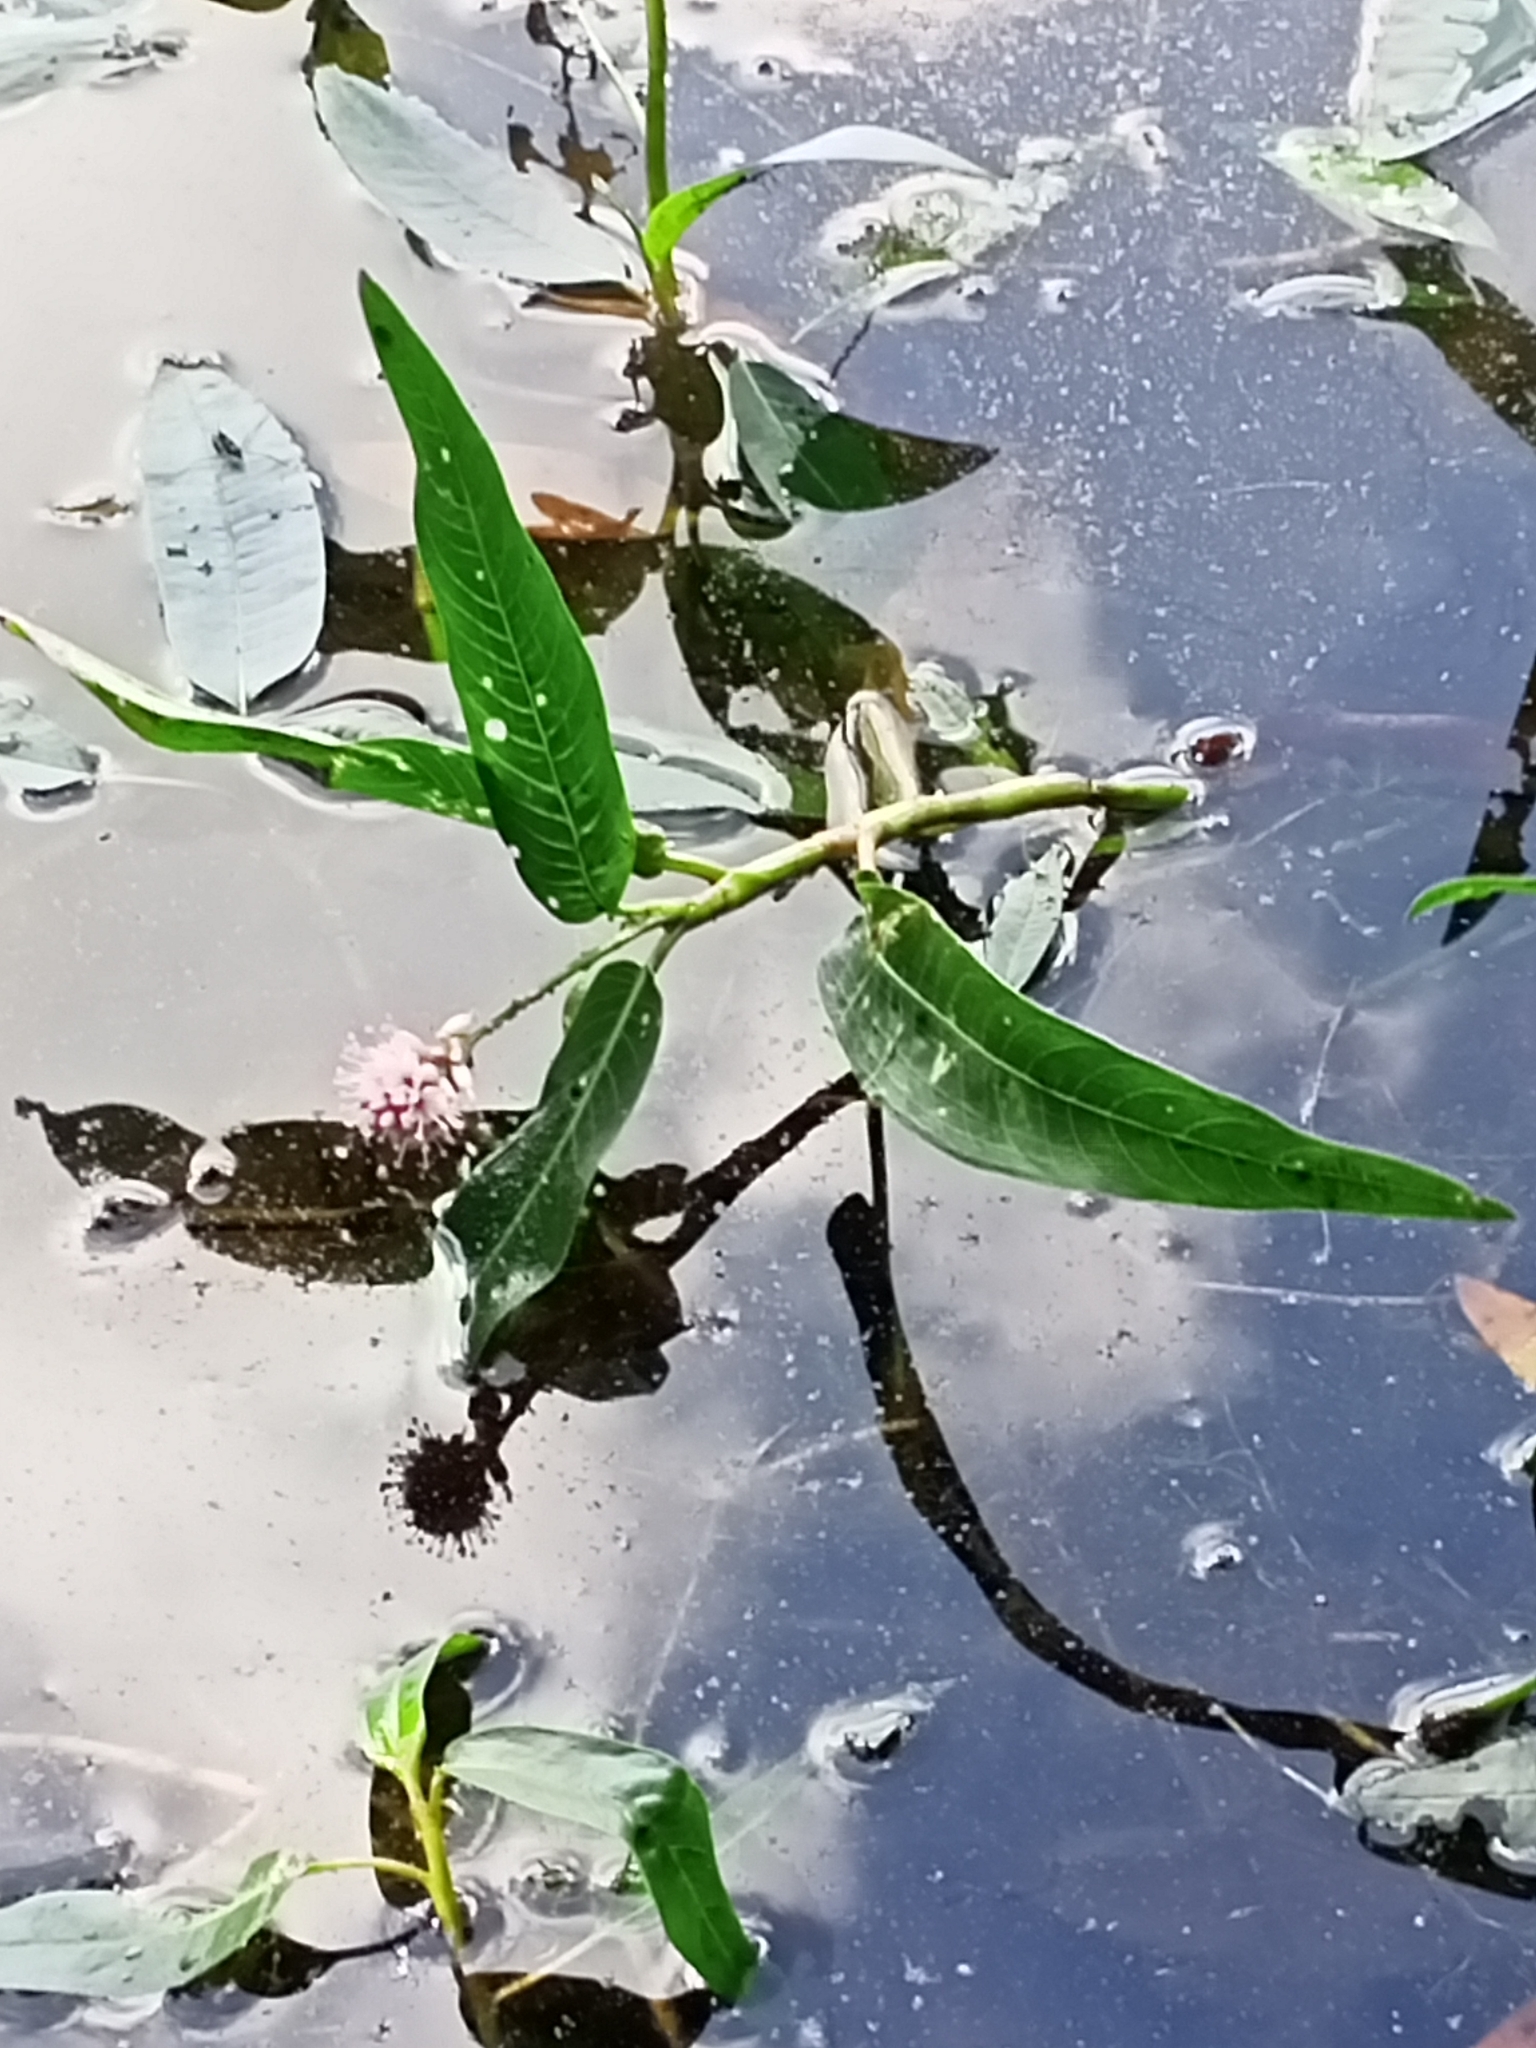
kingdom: Plantae
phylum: Tracheophyta
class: Magnoliopsida
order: Caryophyllales
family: Polygonaceae
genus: Persicaria
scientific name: Persicaria amphibia
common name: Amphibious bistort
